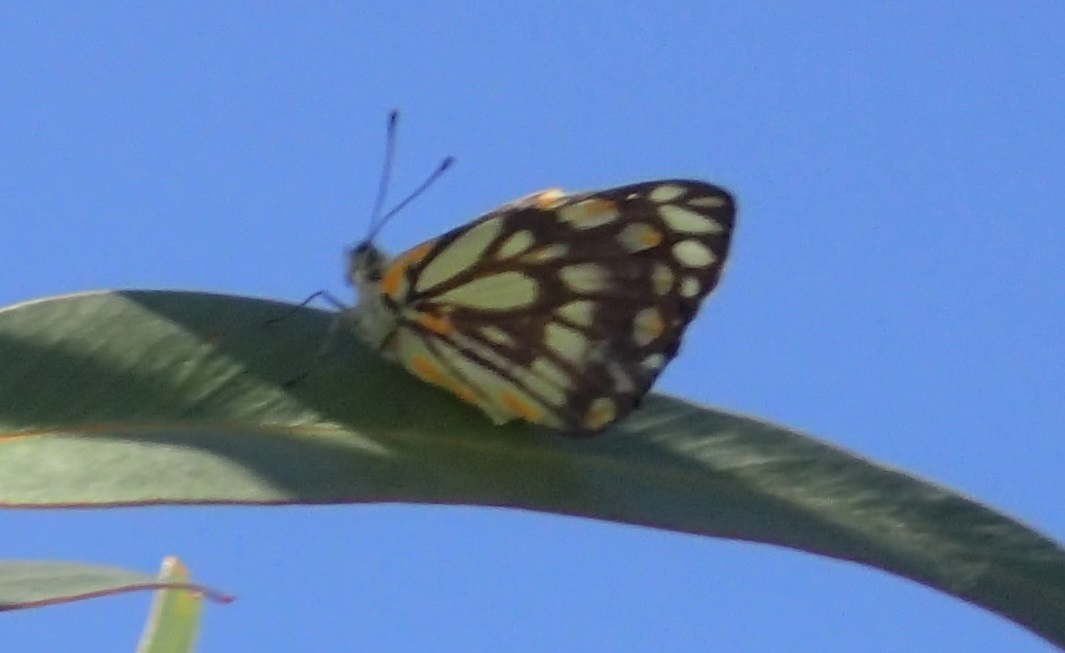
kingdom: Animalia
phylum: Arthropoda
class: Insecta
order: Lepidoptera
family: Pieridae
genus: Belenois
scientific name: Belenois java
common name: Caper white
